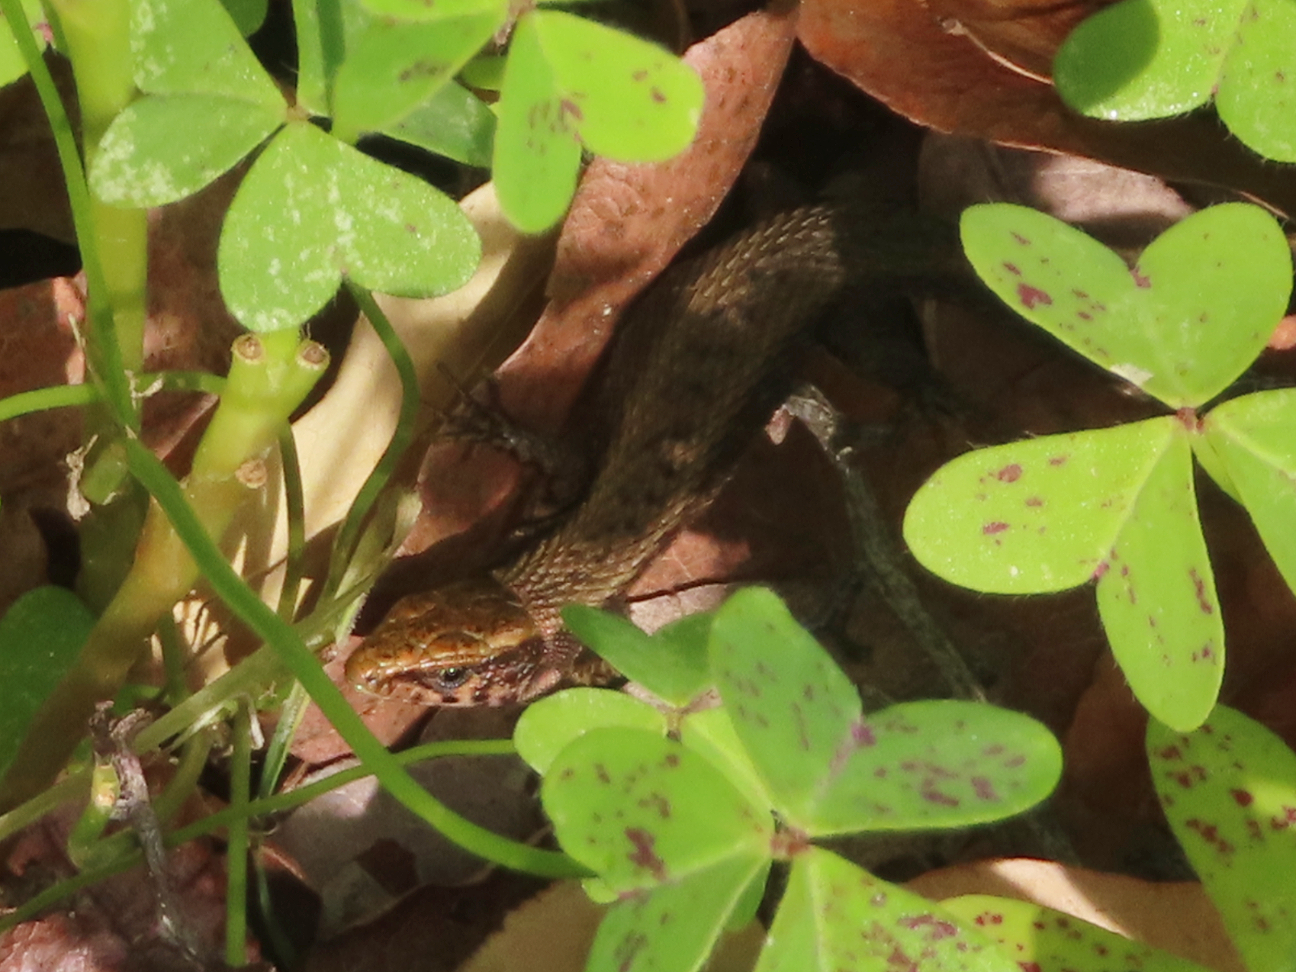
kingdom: Animalia
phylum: Chordata
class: Squamata
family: Lacertidae
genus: Algyroides
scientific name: Algyroides moreoticus
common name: Greek algyroides
